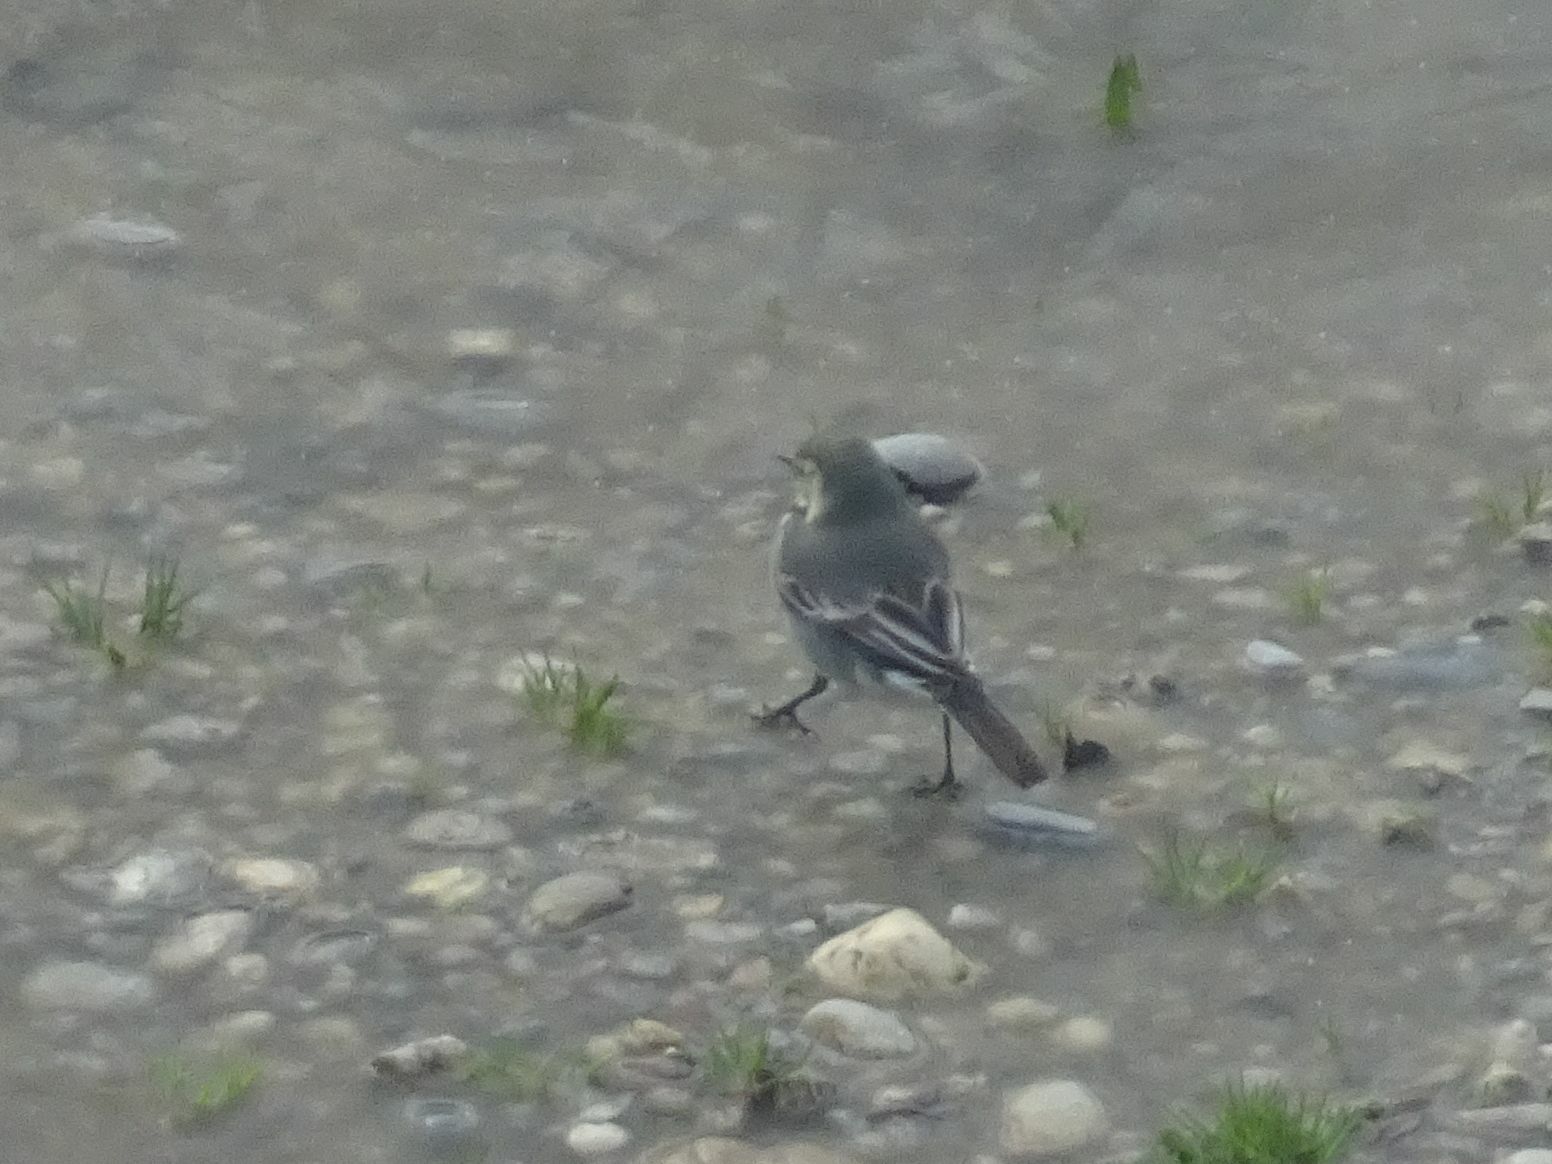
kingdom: Animalia
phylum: Chordata
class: Aves
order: Passeriformes
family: Motacillidae
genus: Motacilla
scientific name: Motacilla alba
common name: White wagtail
